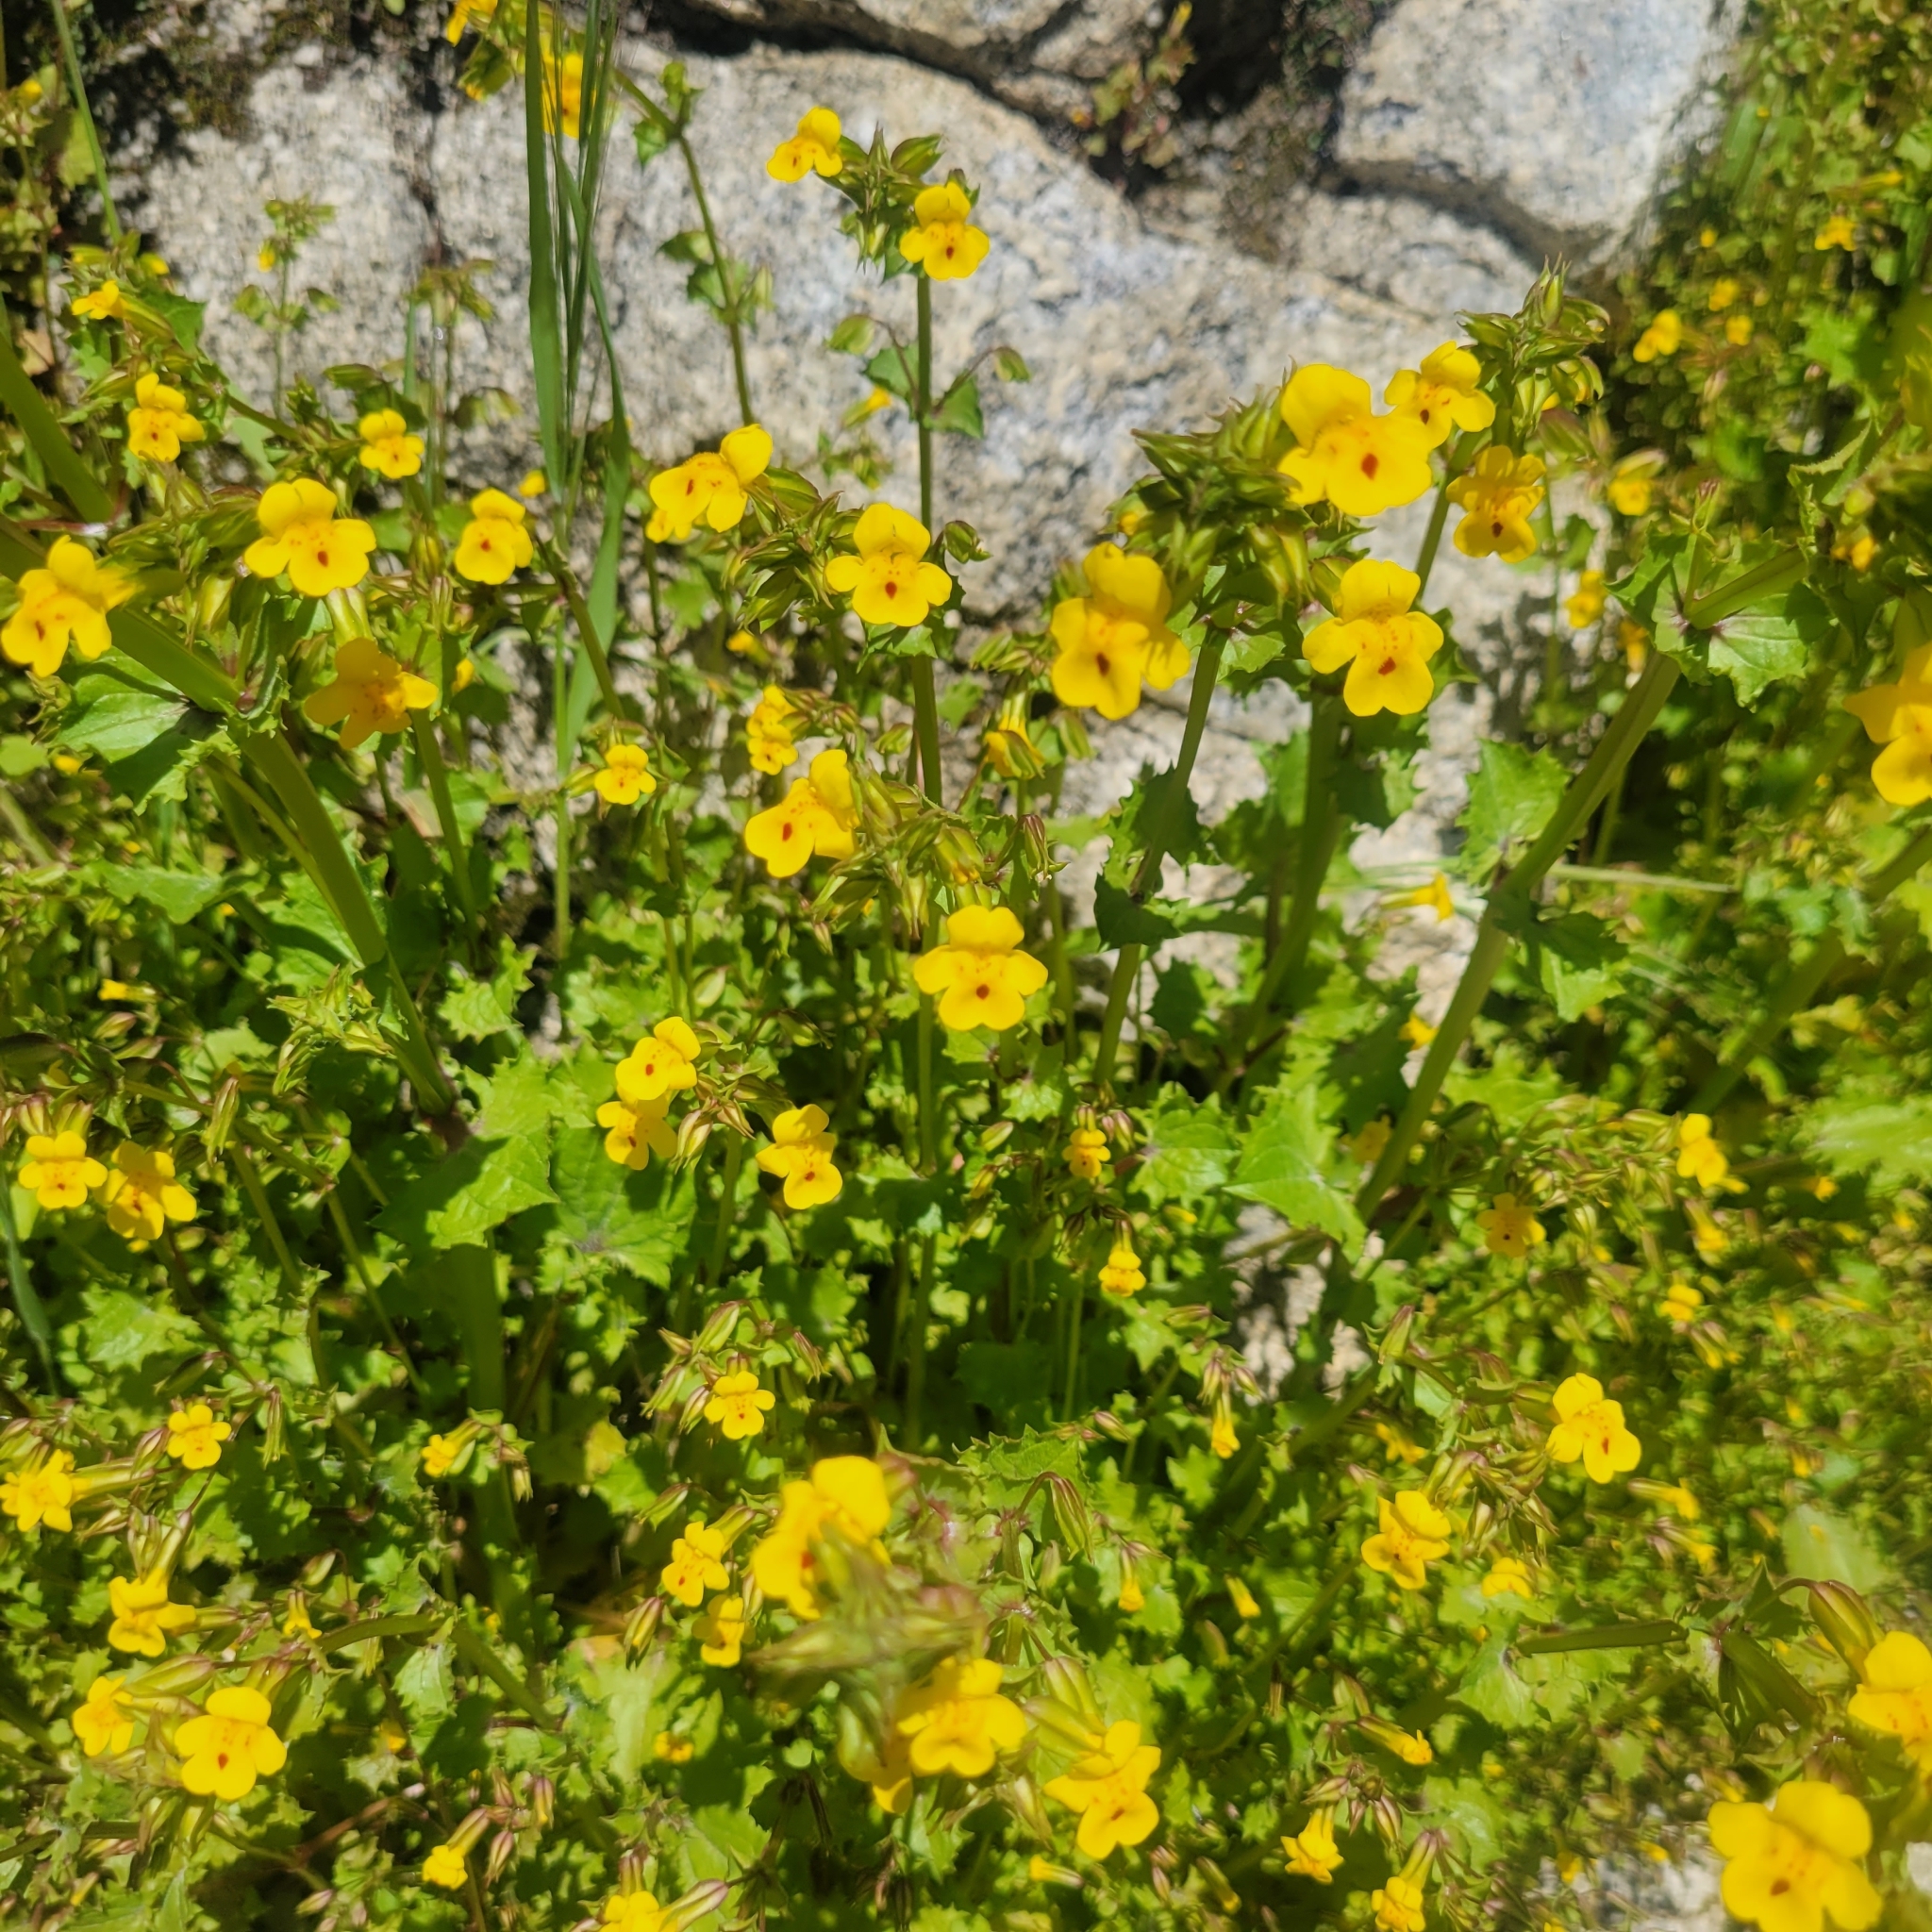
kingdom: Plantae
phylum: Tracheophyta
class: Magnoliopsida
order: Lamiales
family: Phrymaceae
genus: Erythranthe
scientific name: Erythranthe nasuta
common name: Sooke monkeyflower
